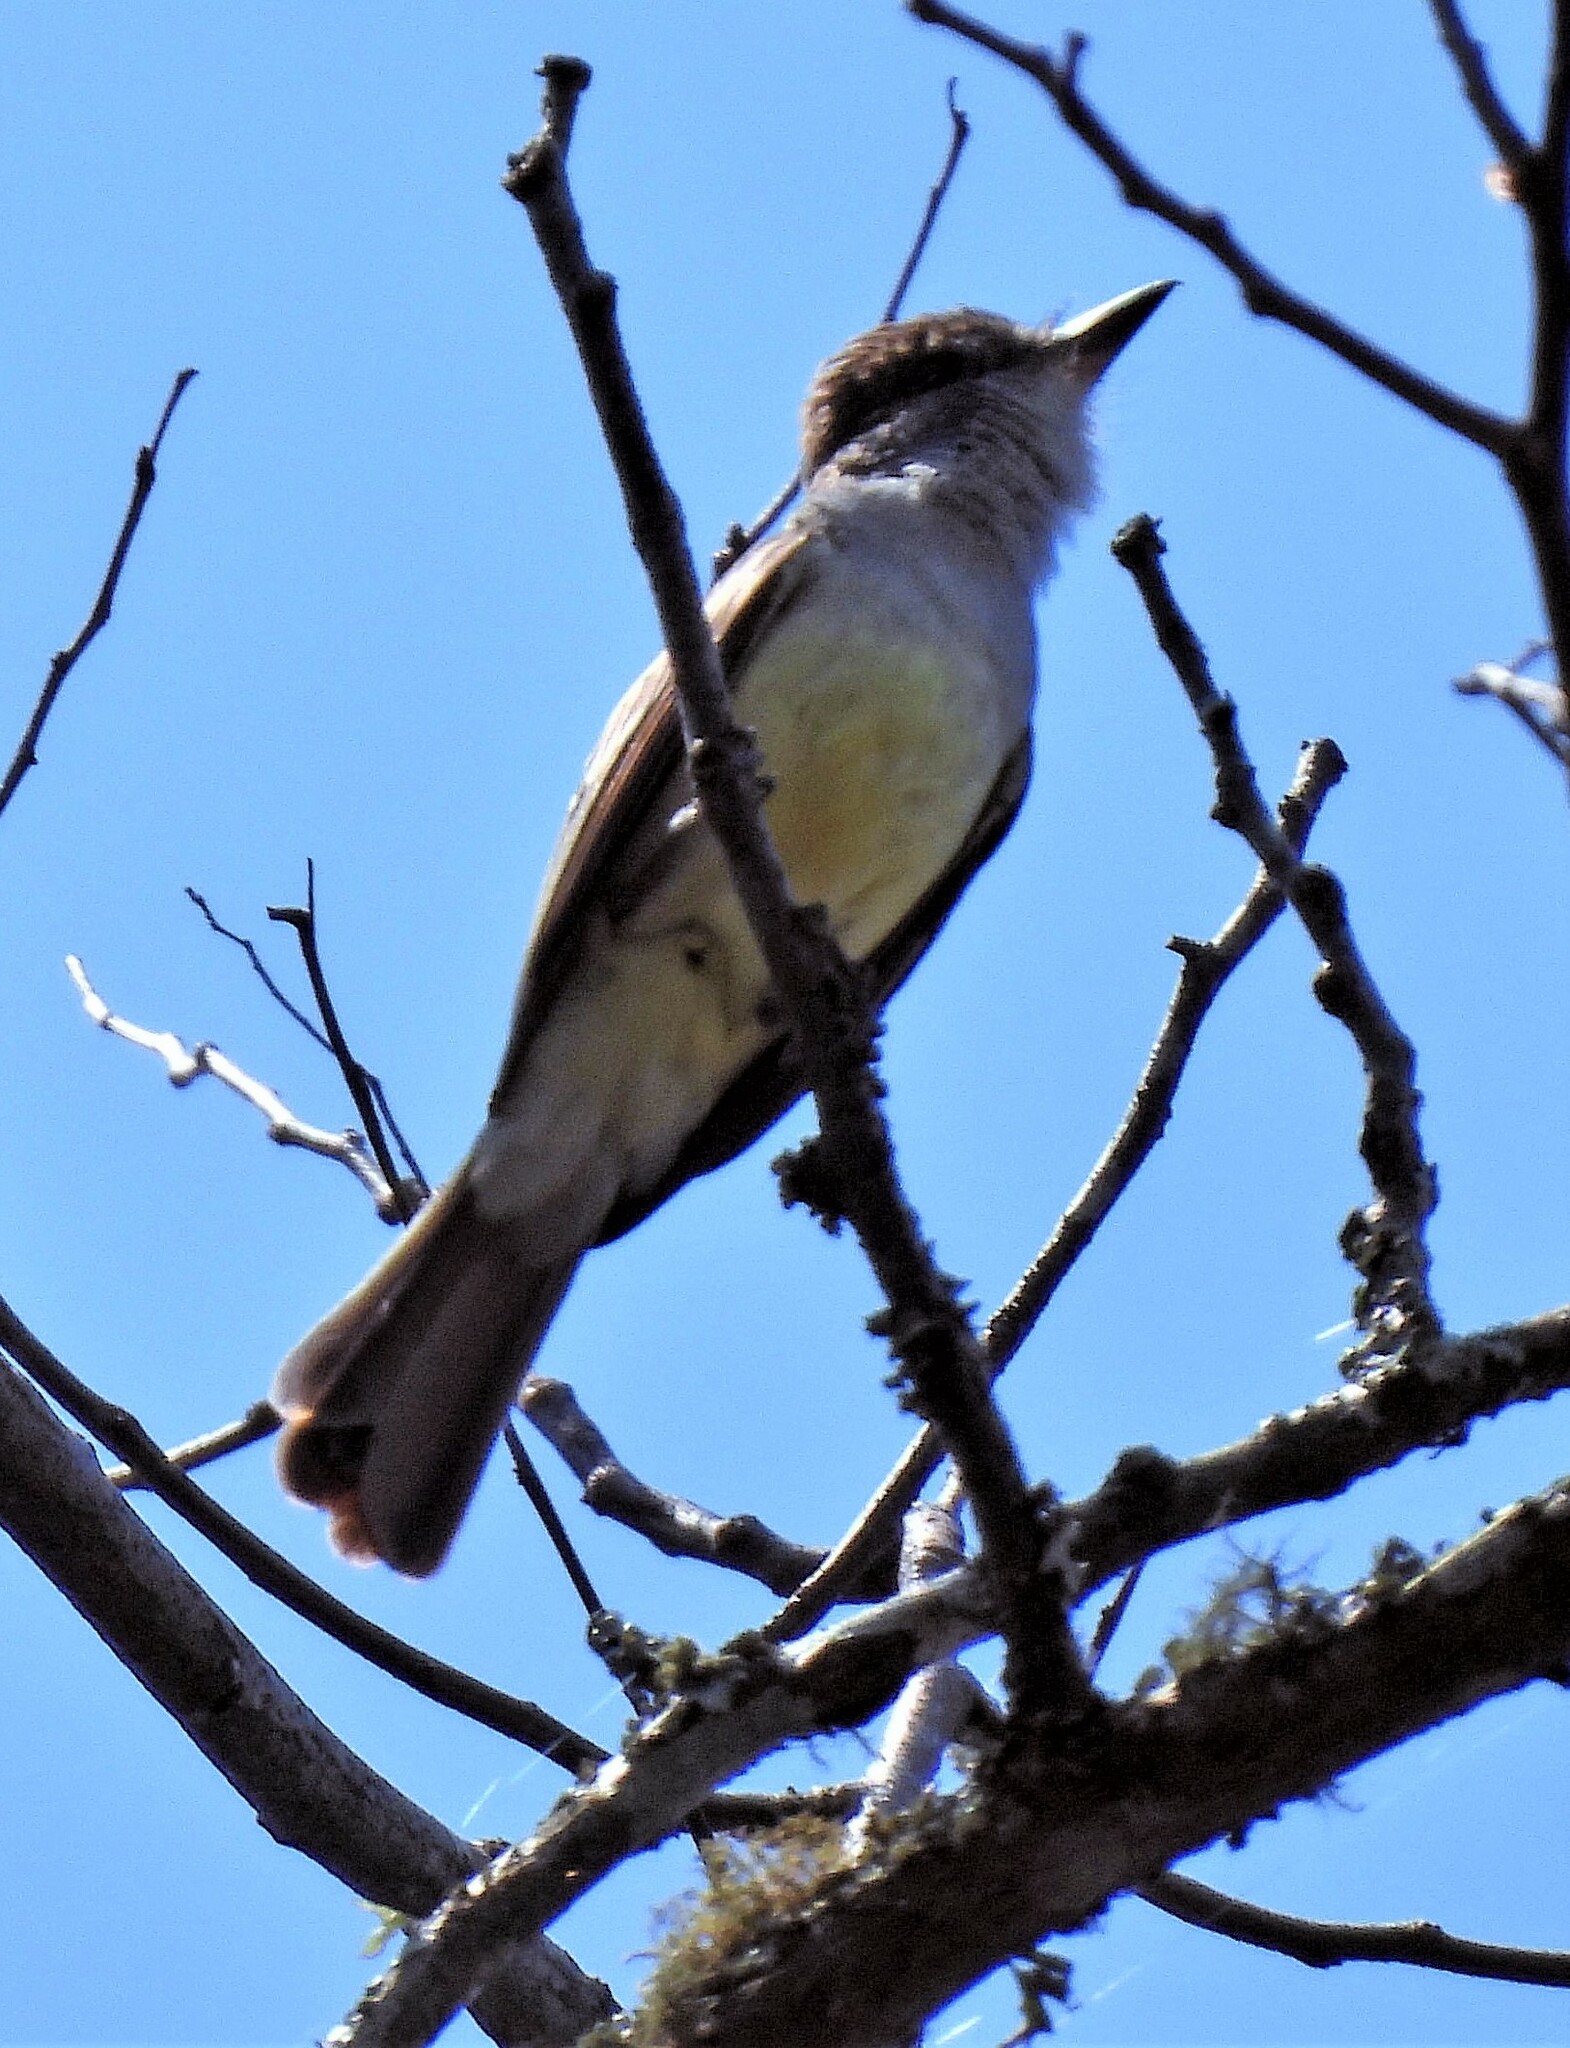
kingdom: Animalia
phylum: Chordata
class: Aves
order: Passeriformes
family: Tyrannidae
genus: Myiarchus
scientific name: Myiarchus tuberculifer
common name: Dusky-capped flycatcher
